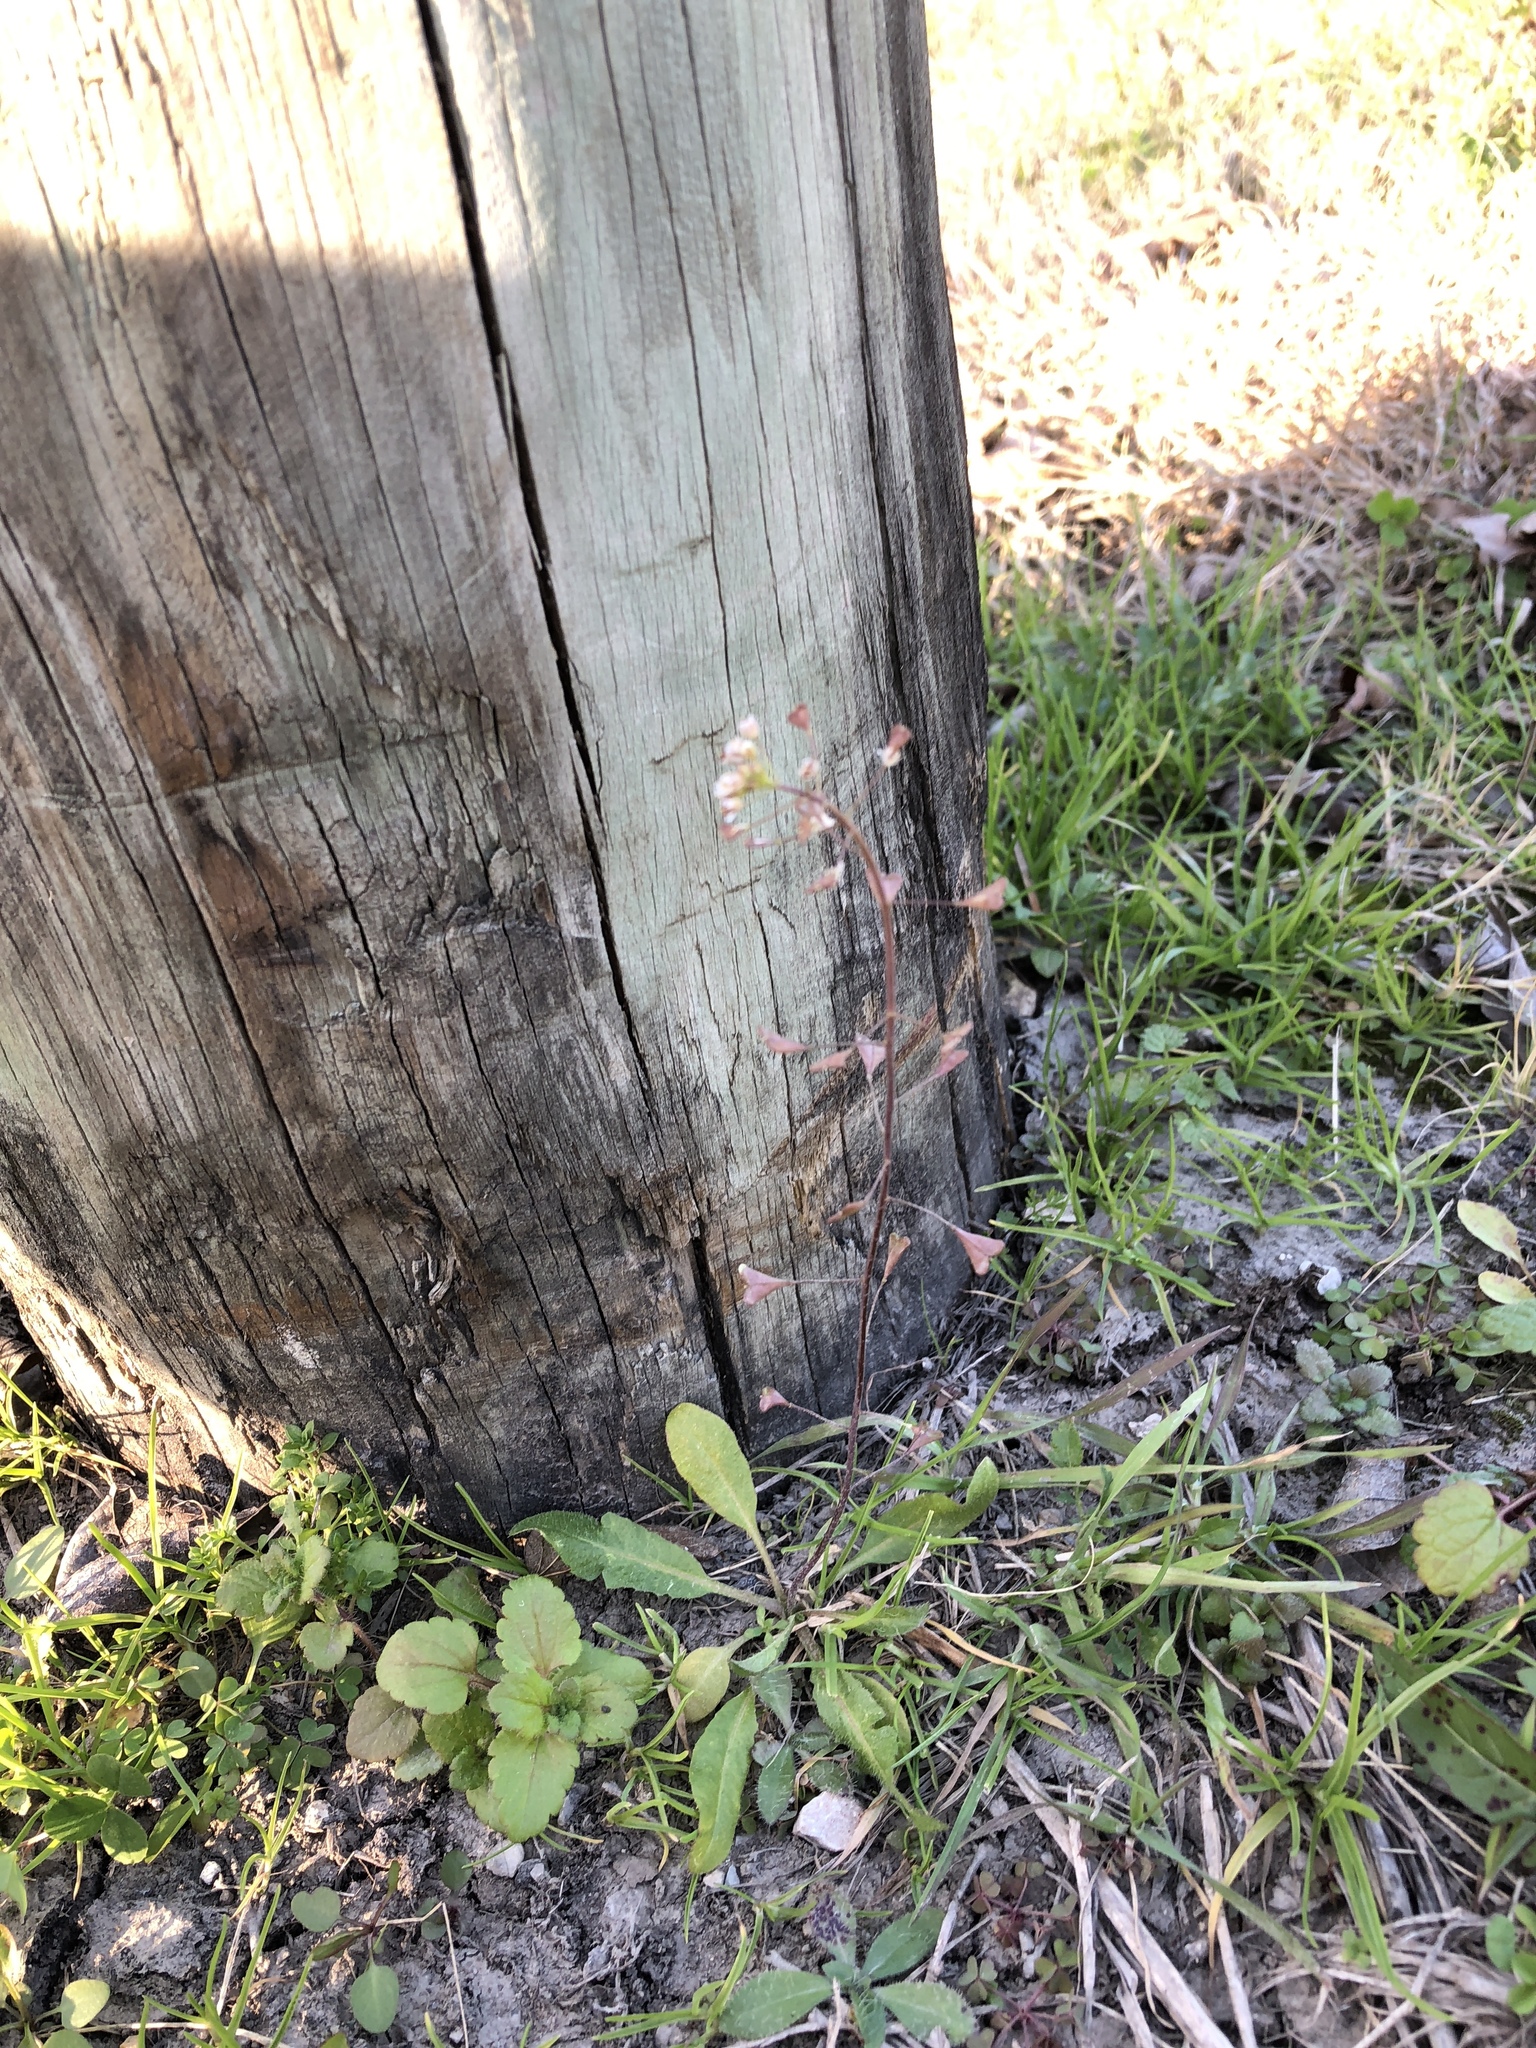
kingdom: Plantae
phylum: Tracheophyta
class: Magnoliopsida
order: Brassicales
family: Brassicaceae
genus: Capsella
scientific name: Capsella bursa-pastoris
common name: Shepherd's purse
